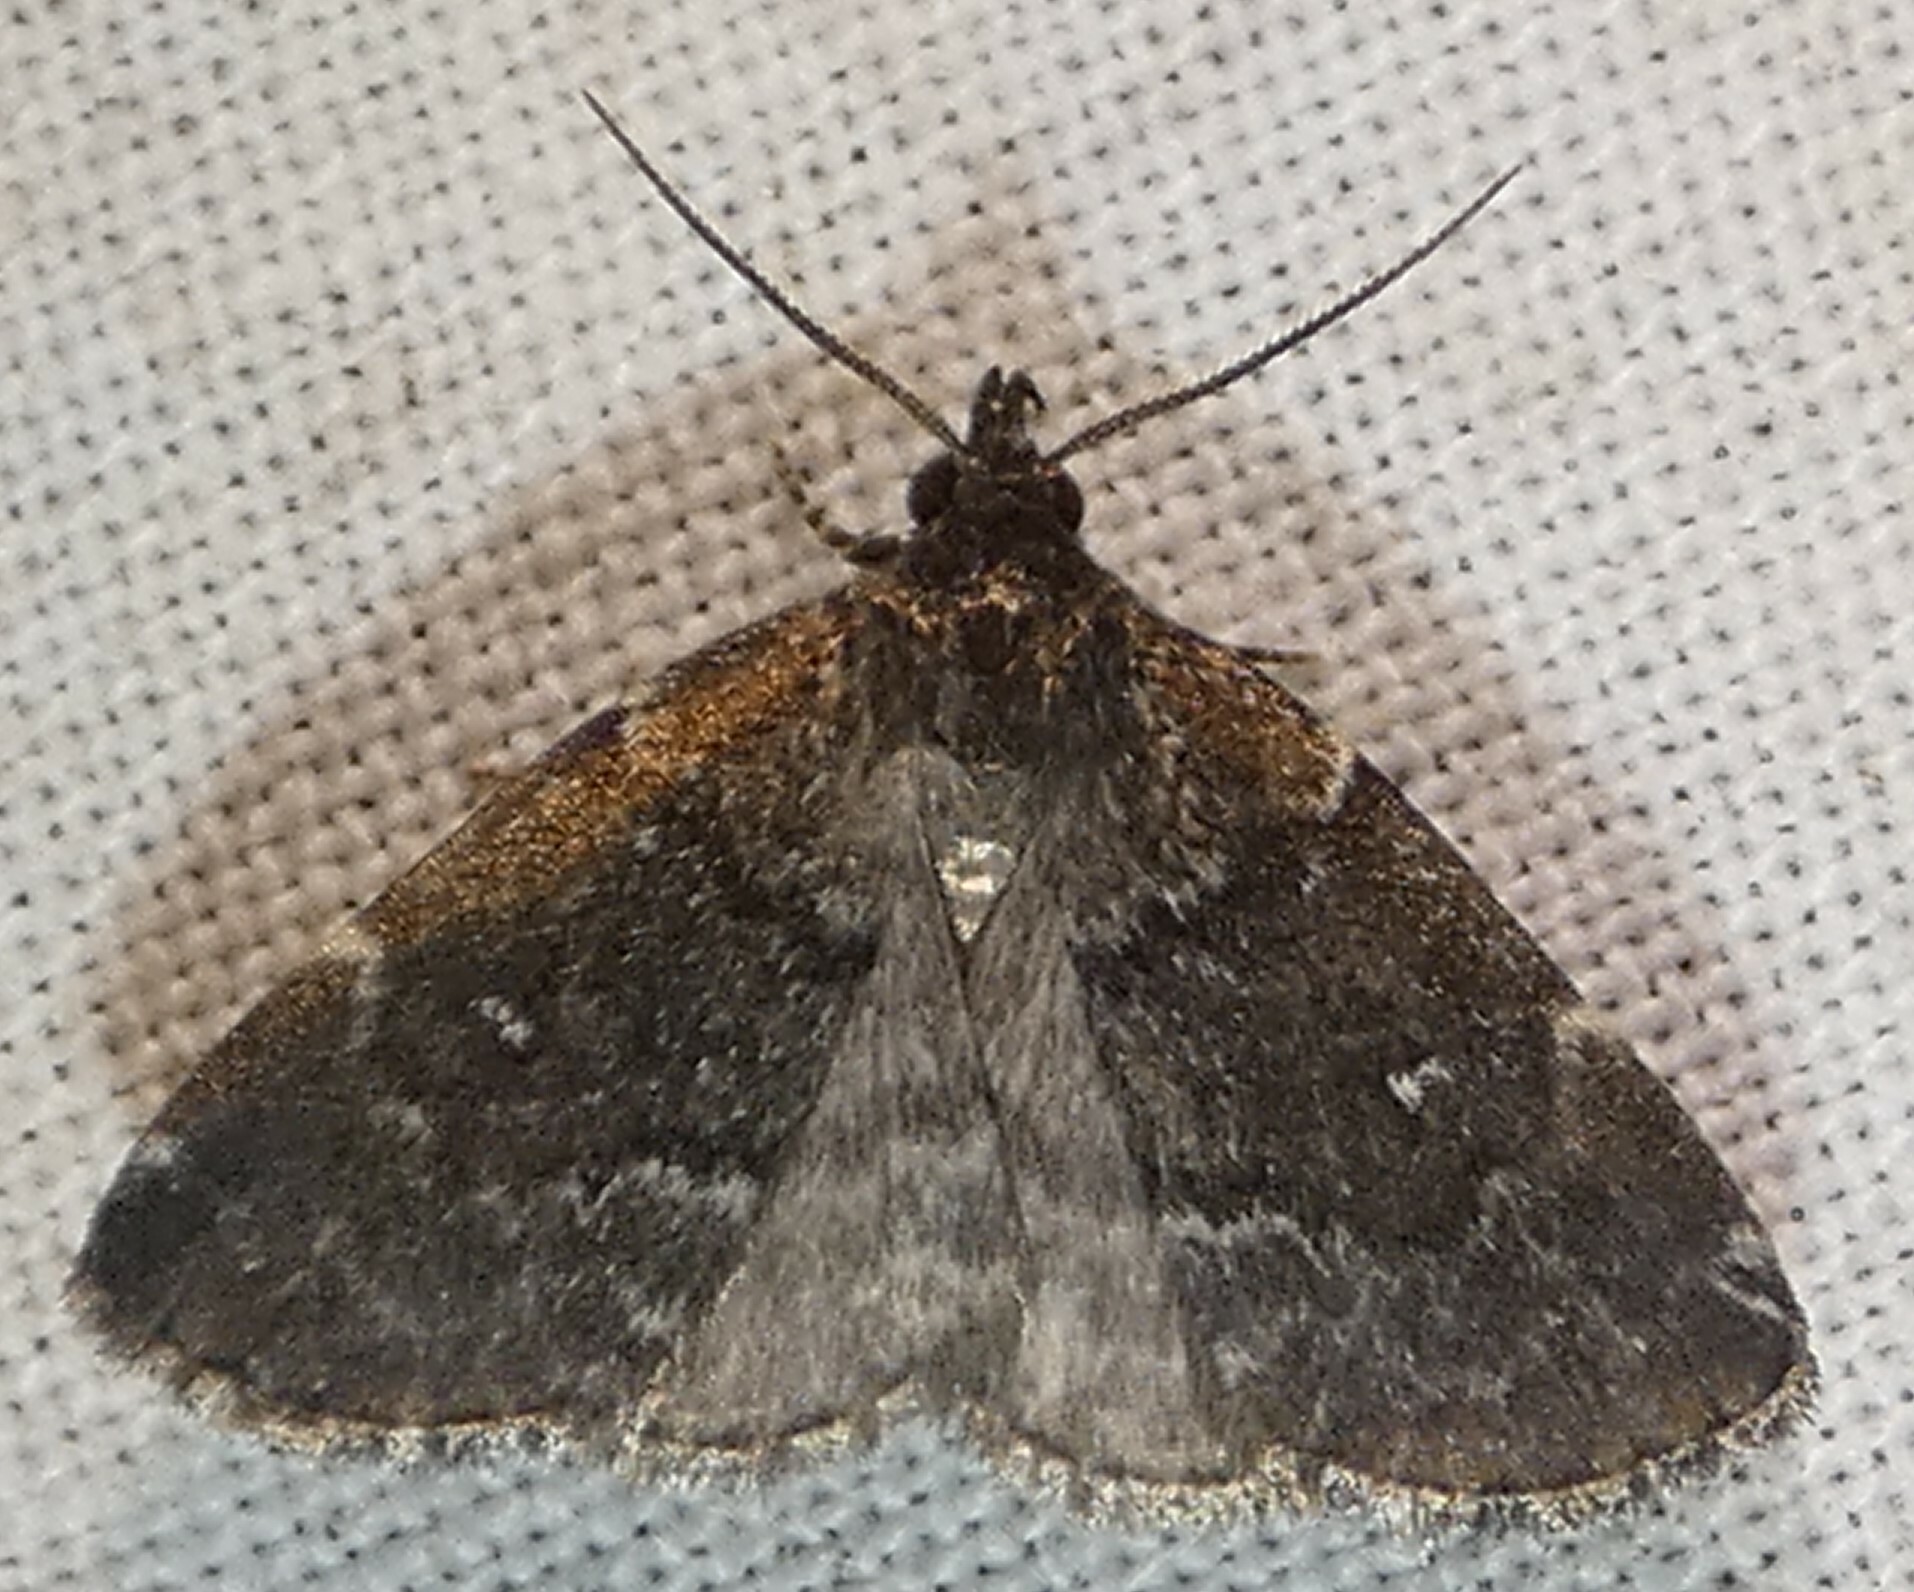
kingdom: Animalia
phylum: Arthropoda
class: Insecta
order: Lepidoptera
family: Erebidae
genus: Idia
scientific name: Idia julia
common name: Julia's idia moth
